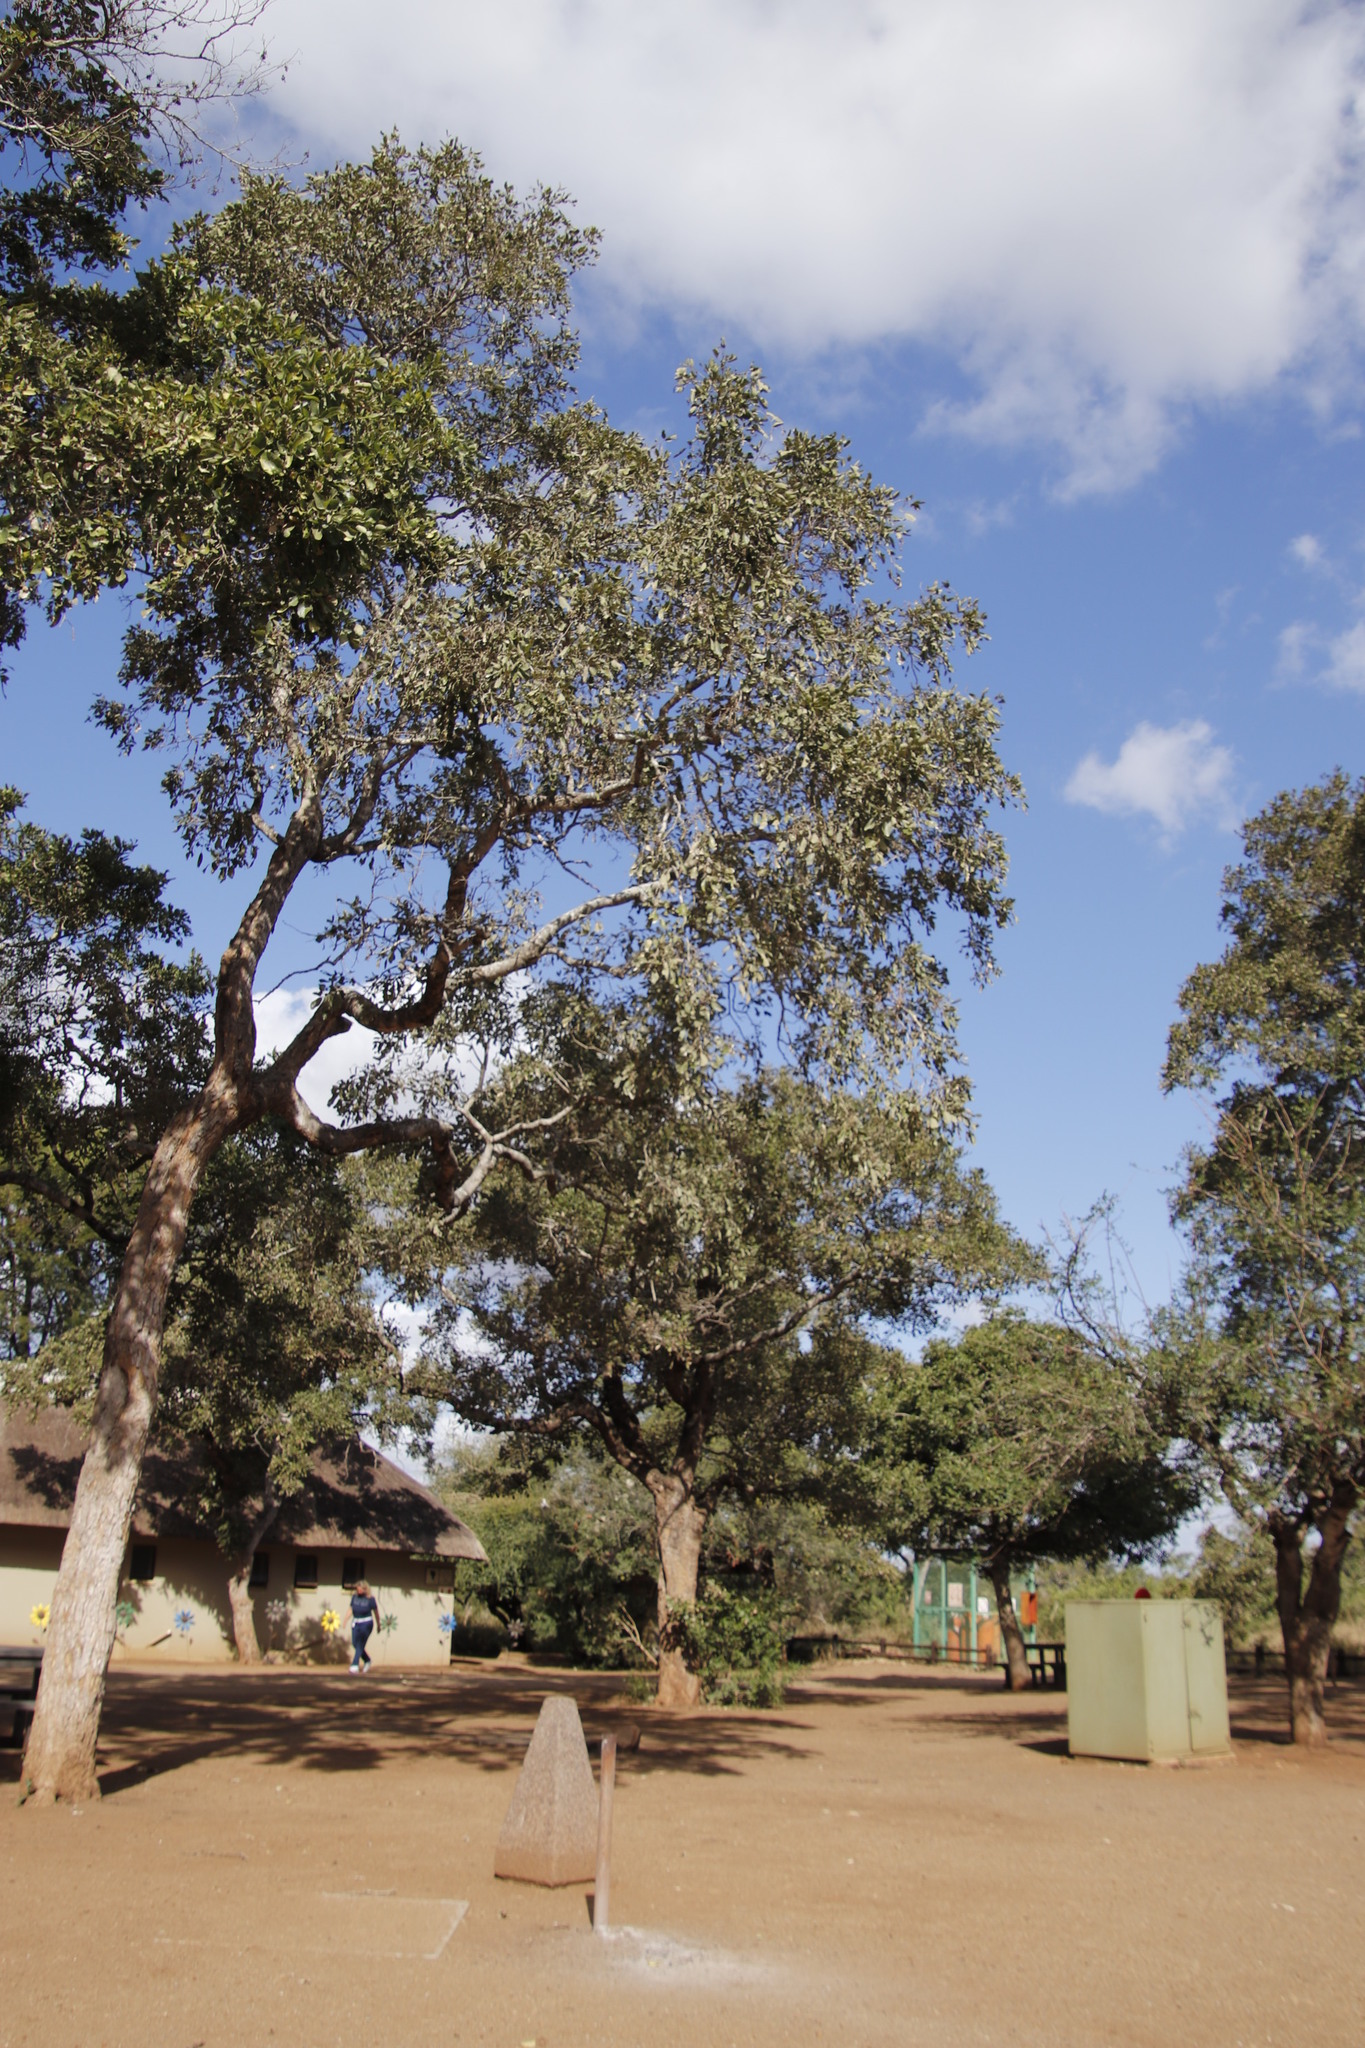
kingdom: Plantae
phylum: Tracheophyta
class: Magnoliopsida
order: Fabales
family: Fabaceae
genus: Philenoptera
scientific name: Philenoptera violacea
